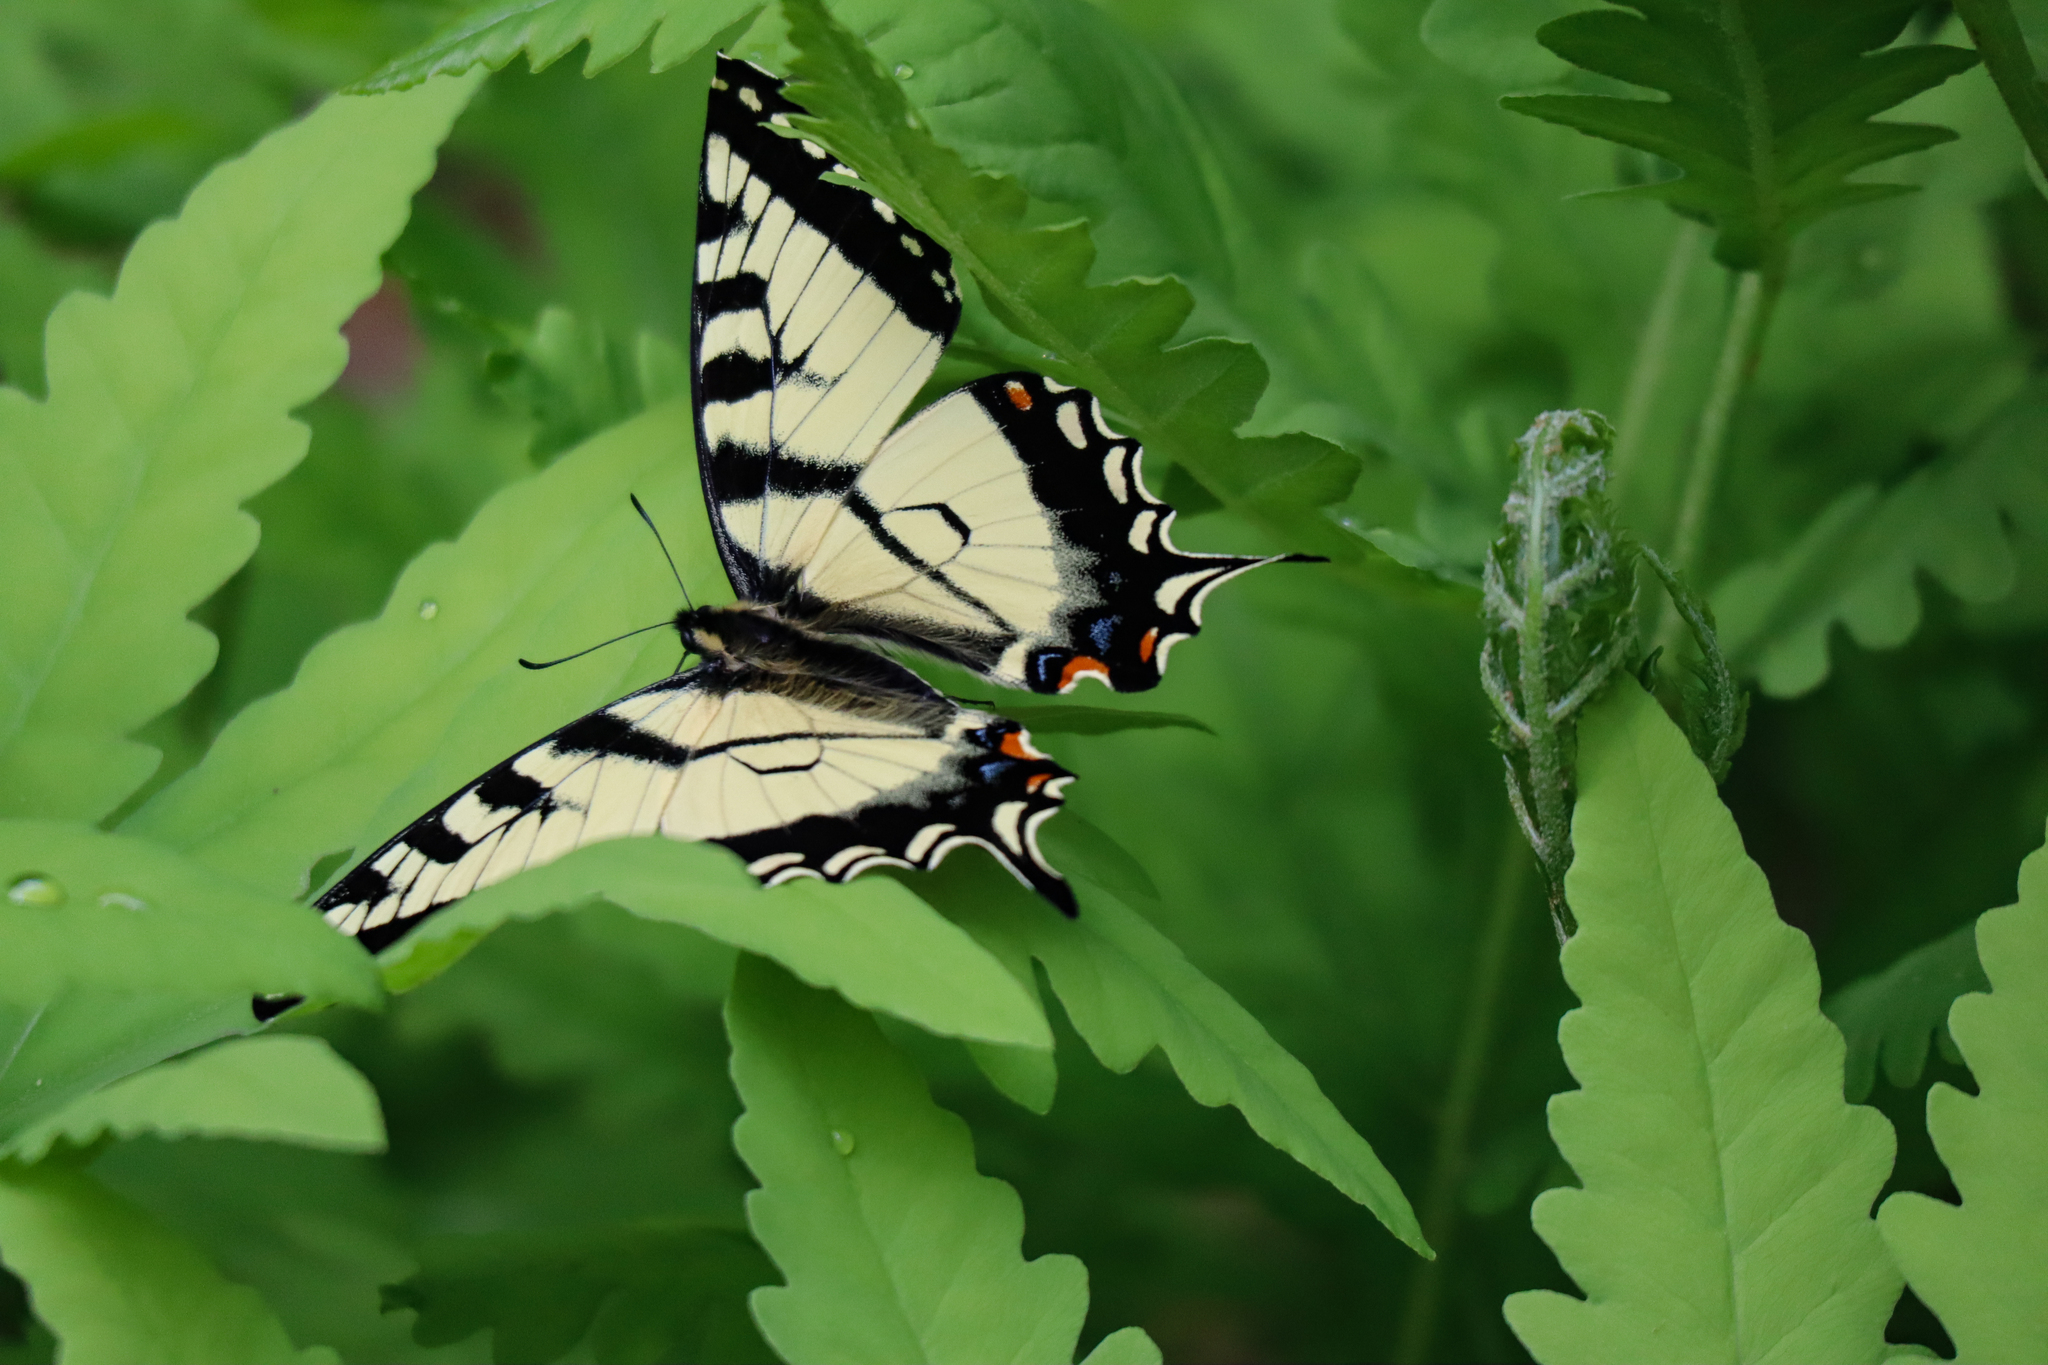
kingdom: Animalia
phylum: Arthropoda
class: Insecta
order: Lepidoptera
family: Papilionidae
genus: Papilio
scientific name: Papilio canadensis
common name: Canadian tiger swallowtail
